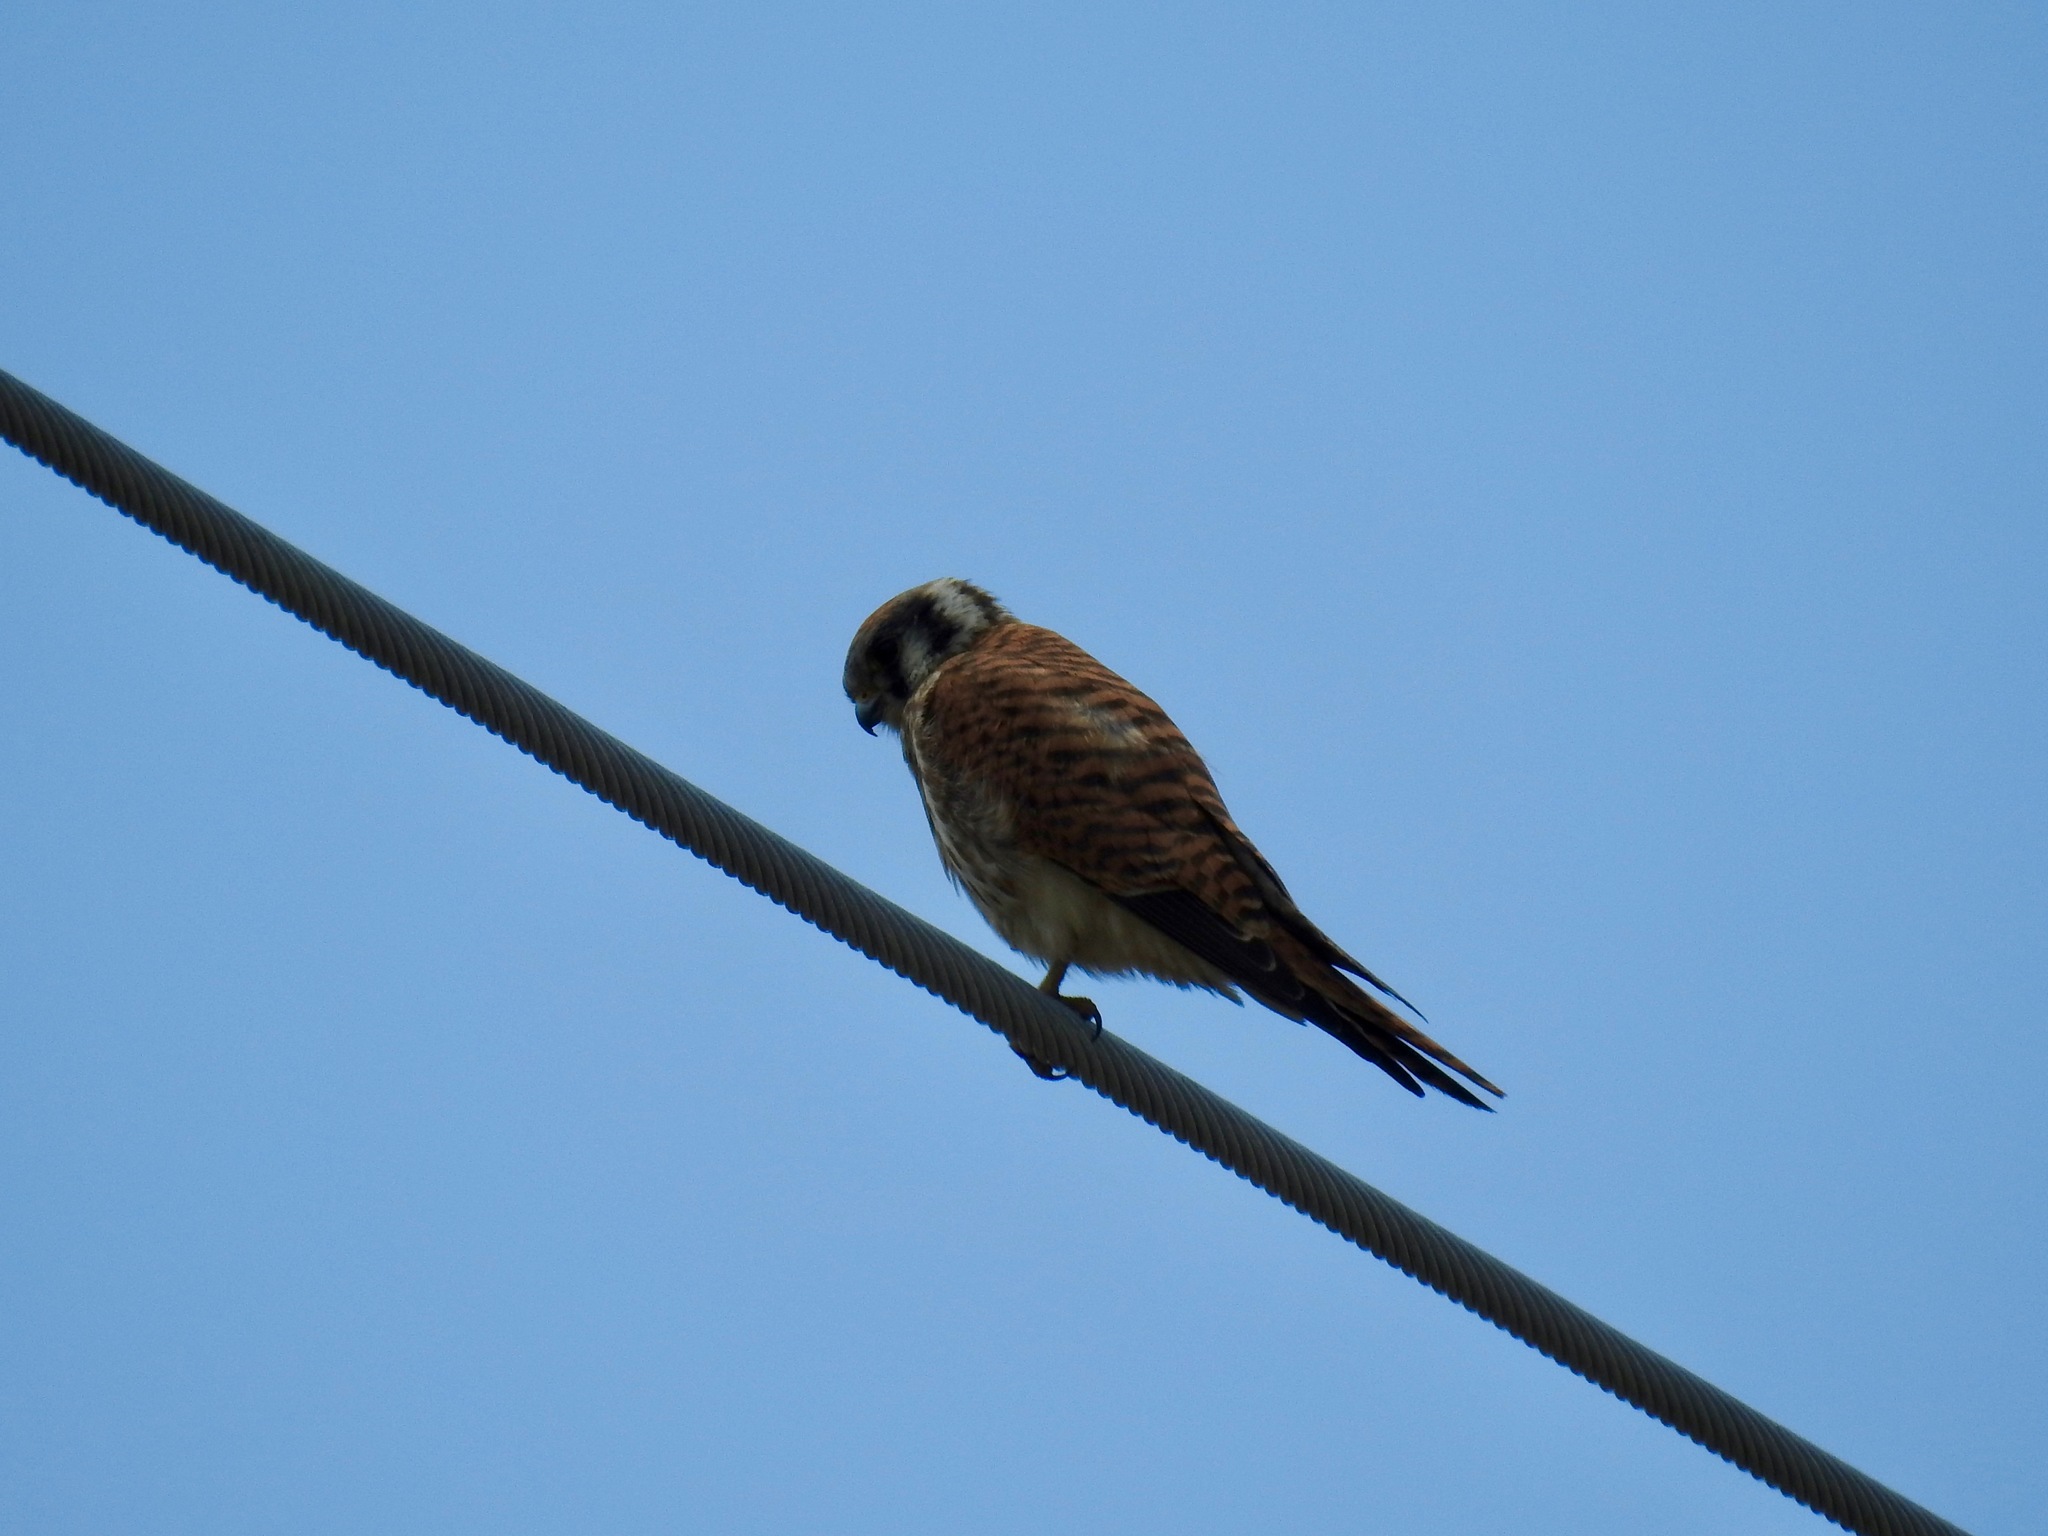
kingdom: Animalia
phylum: Chordata
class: Aves
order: Falconiformes
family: Falconidae
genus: Falco
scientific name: Falco sparverius
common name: American kestrel
